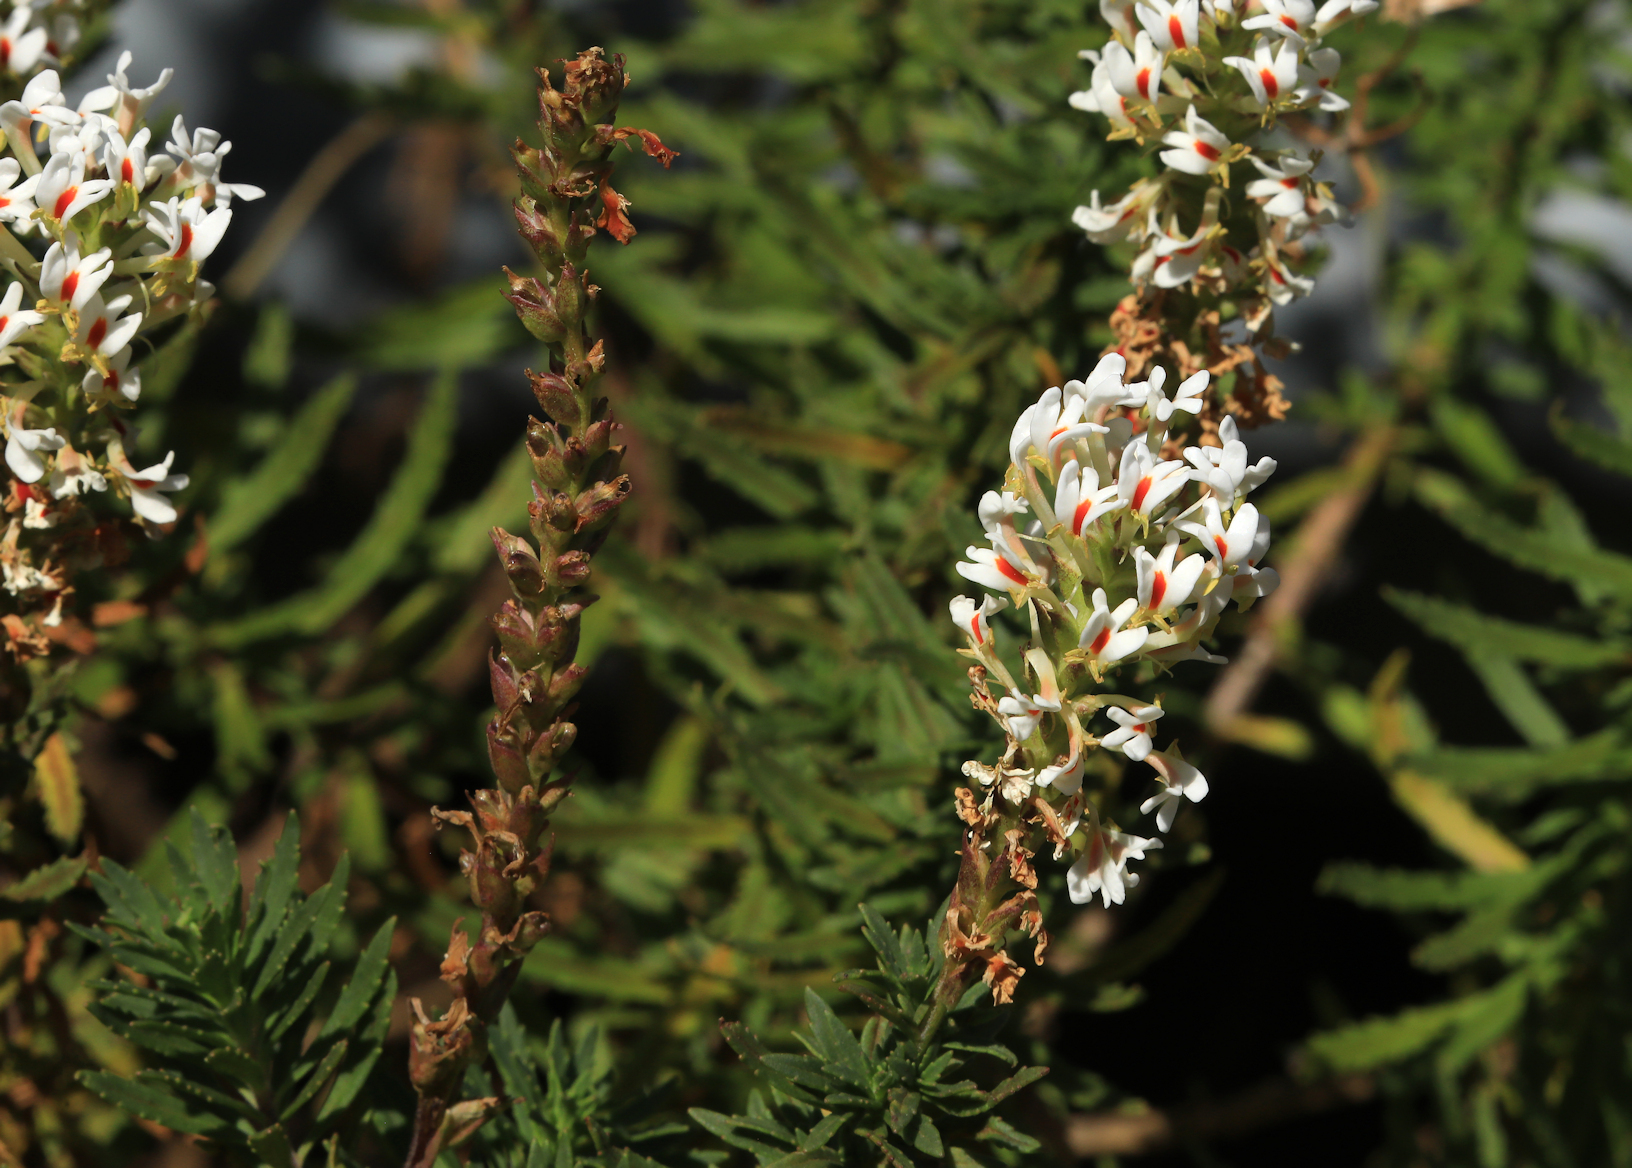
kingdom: Plantae
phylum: Tracheophyta
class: Magnoliopsida
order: Lamiales
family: Scrophulariaceae
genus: Hebenstretia
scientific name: Hebenstretia dura
